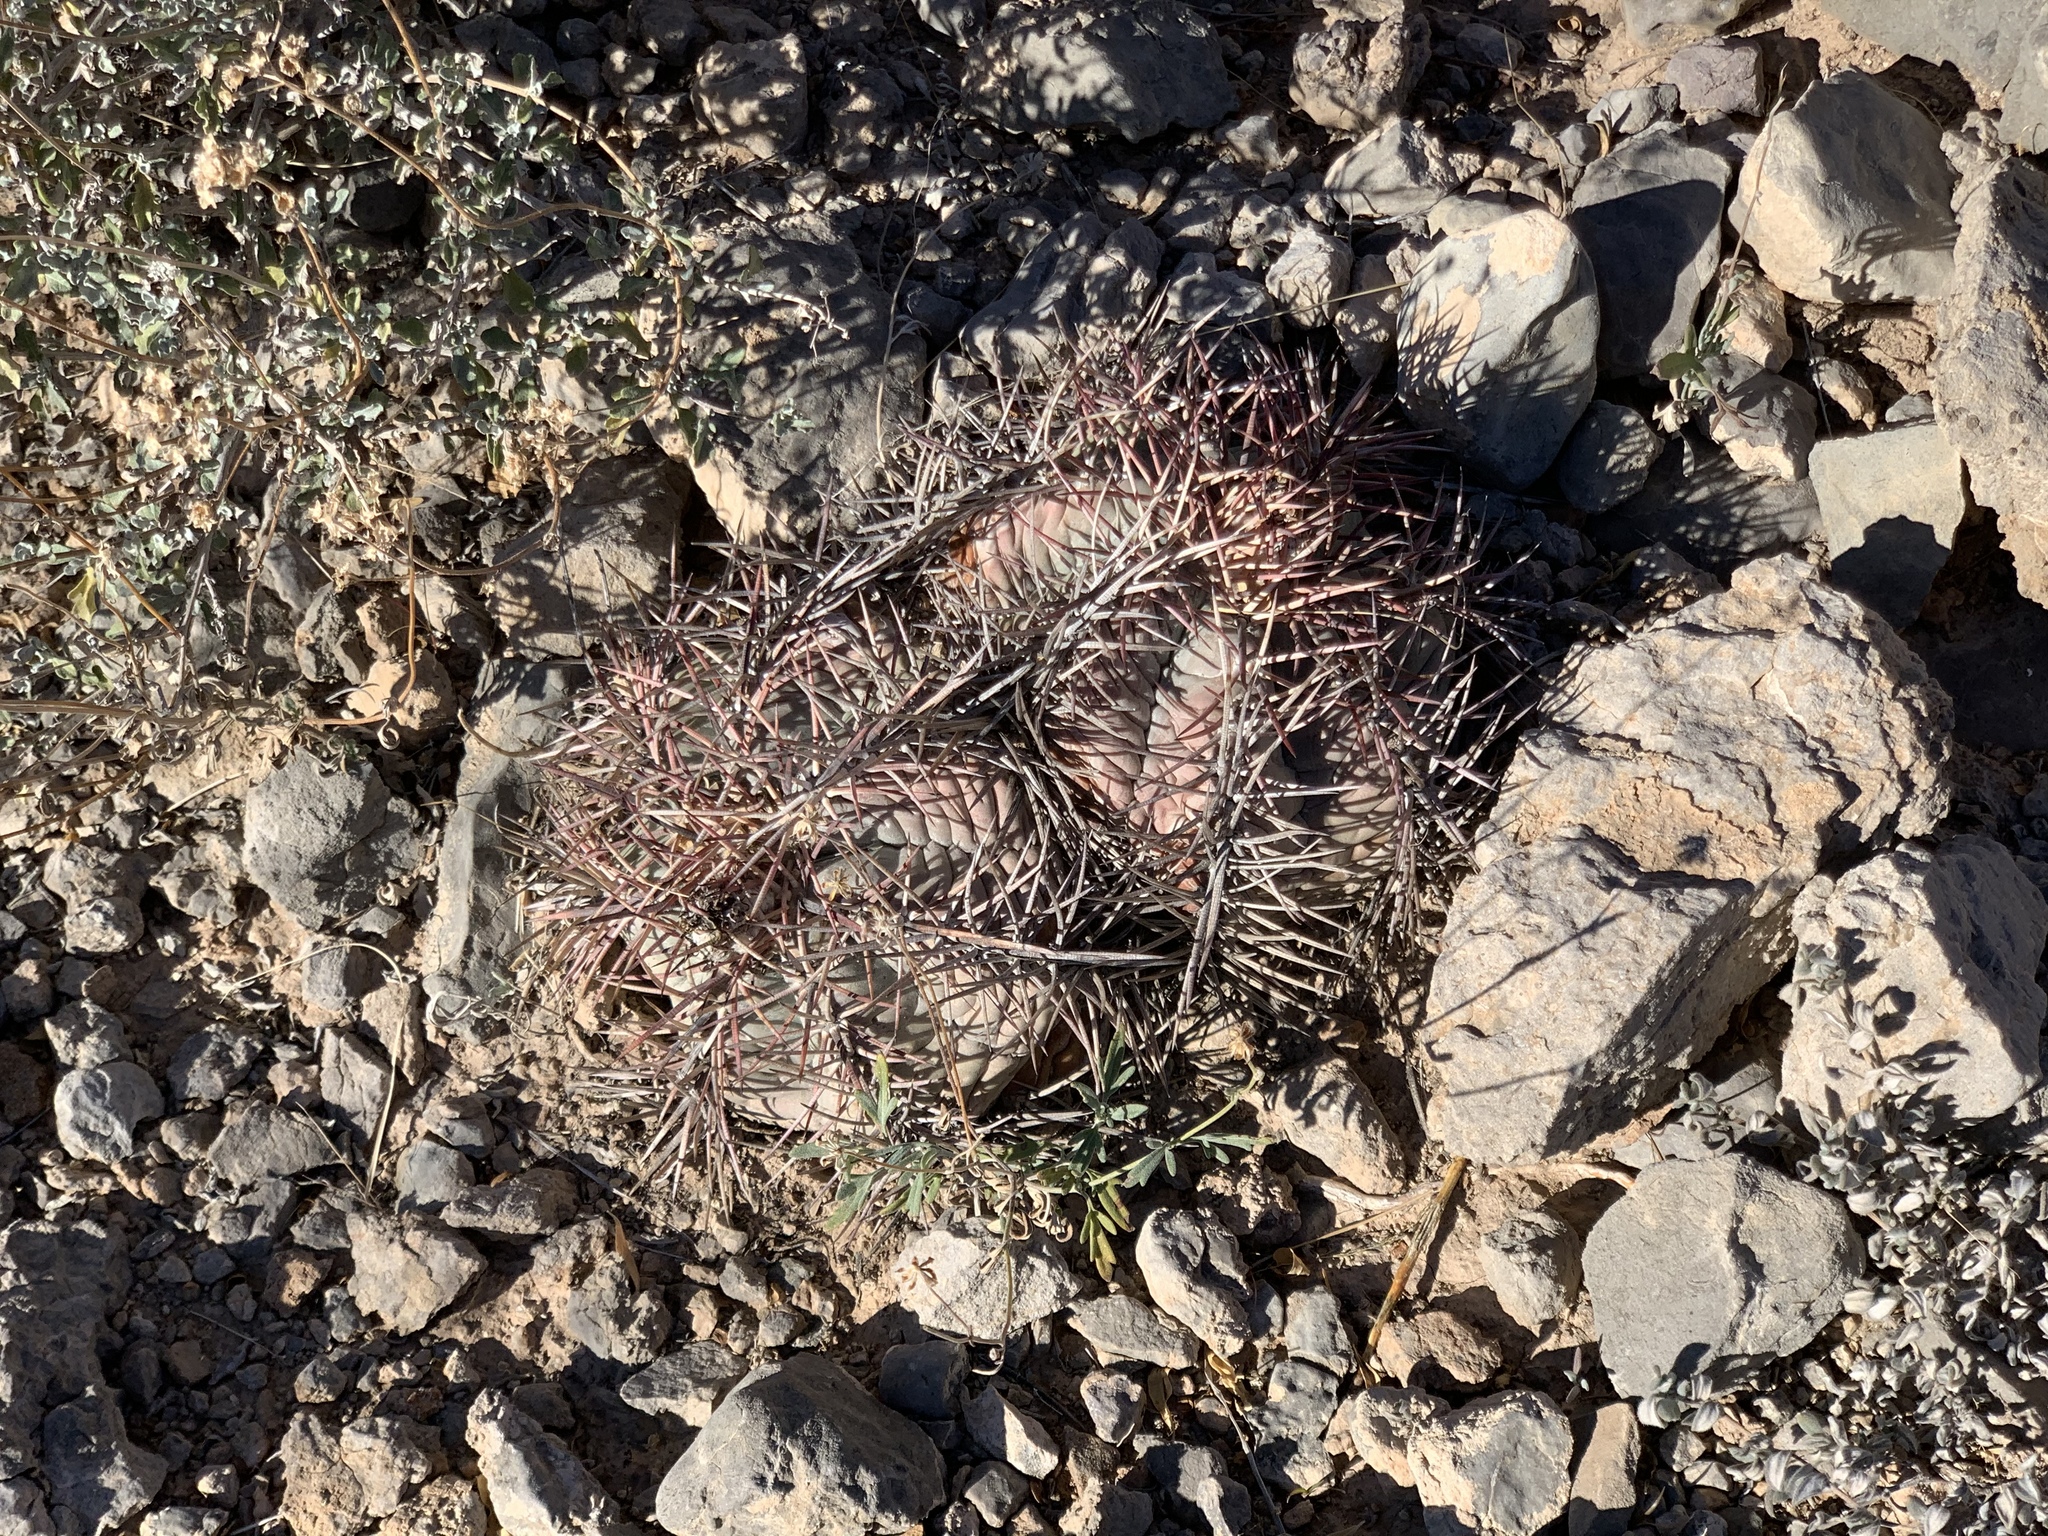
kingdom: Plantae
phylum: Tracheophyta
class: Magnoliopsida
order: Caryophyllales
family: Cactaceae
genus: Echinocactus
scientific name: Echinocactus horizonthalonius
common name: Devilshead
